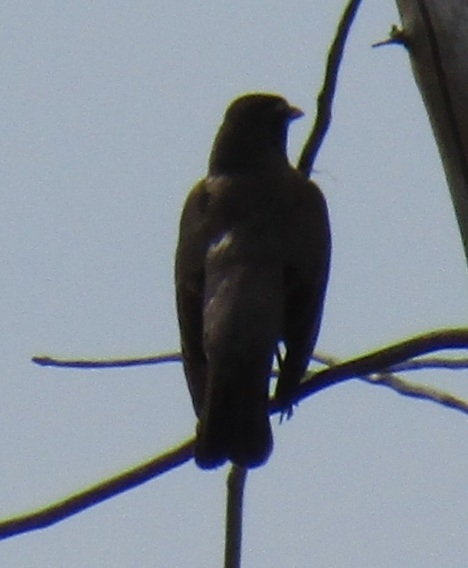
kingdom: Animalia
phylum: Chordata
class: Aves
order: Passeriformes
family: Turdidae
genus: Turdus
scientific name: Turdus migratorius
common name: American robin
